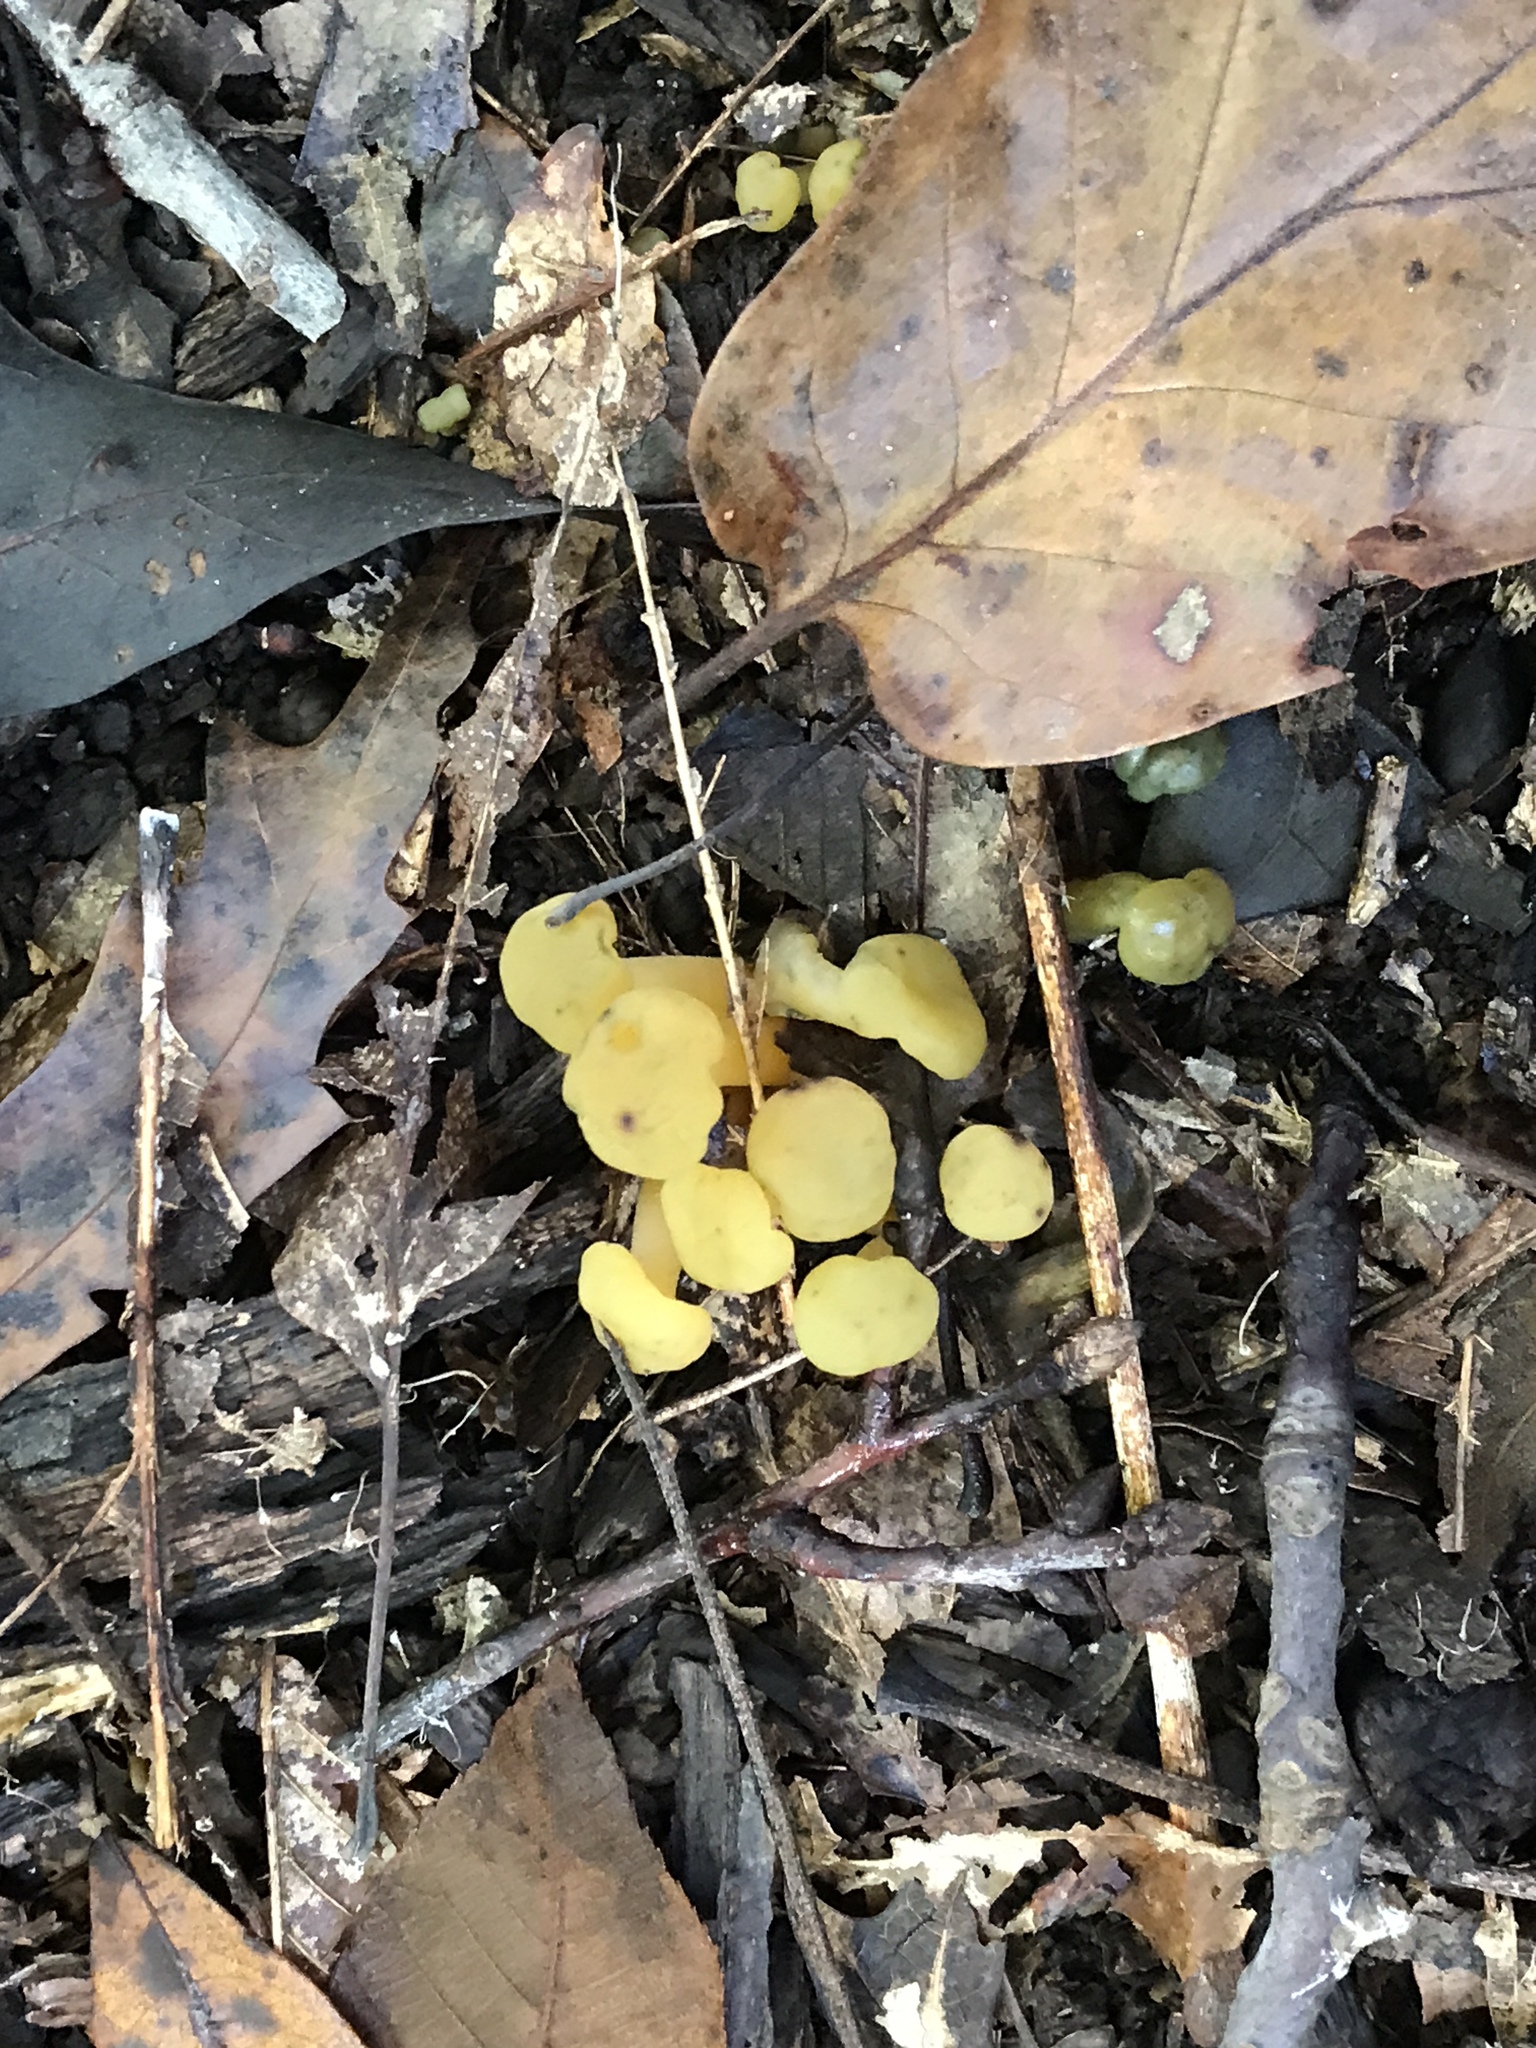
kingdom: Fungi
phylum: Ascomycota
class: Leotiomycetes
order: Leotiales
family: Leotiaceae
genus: Leotia
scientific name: Leotia lubrica
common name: Jellybaby
